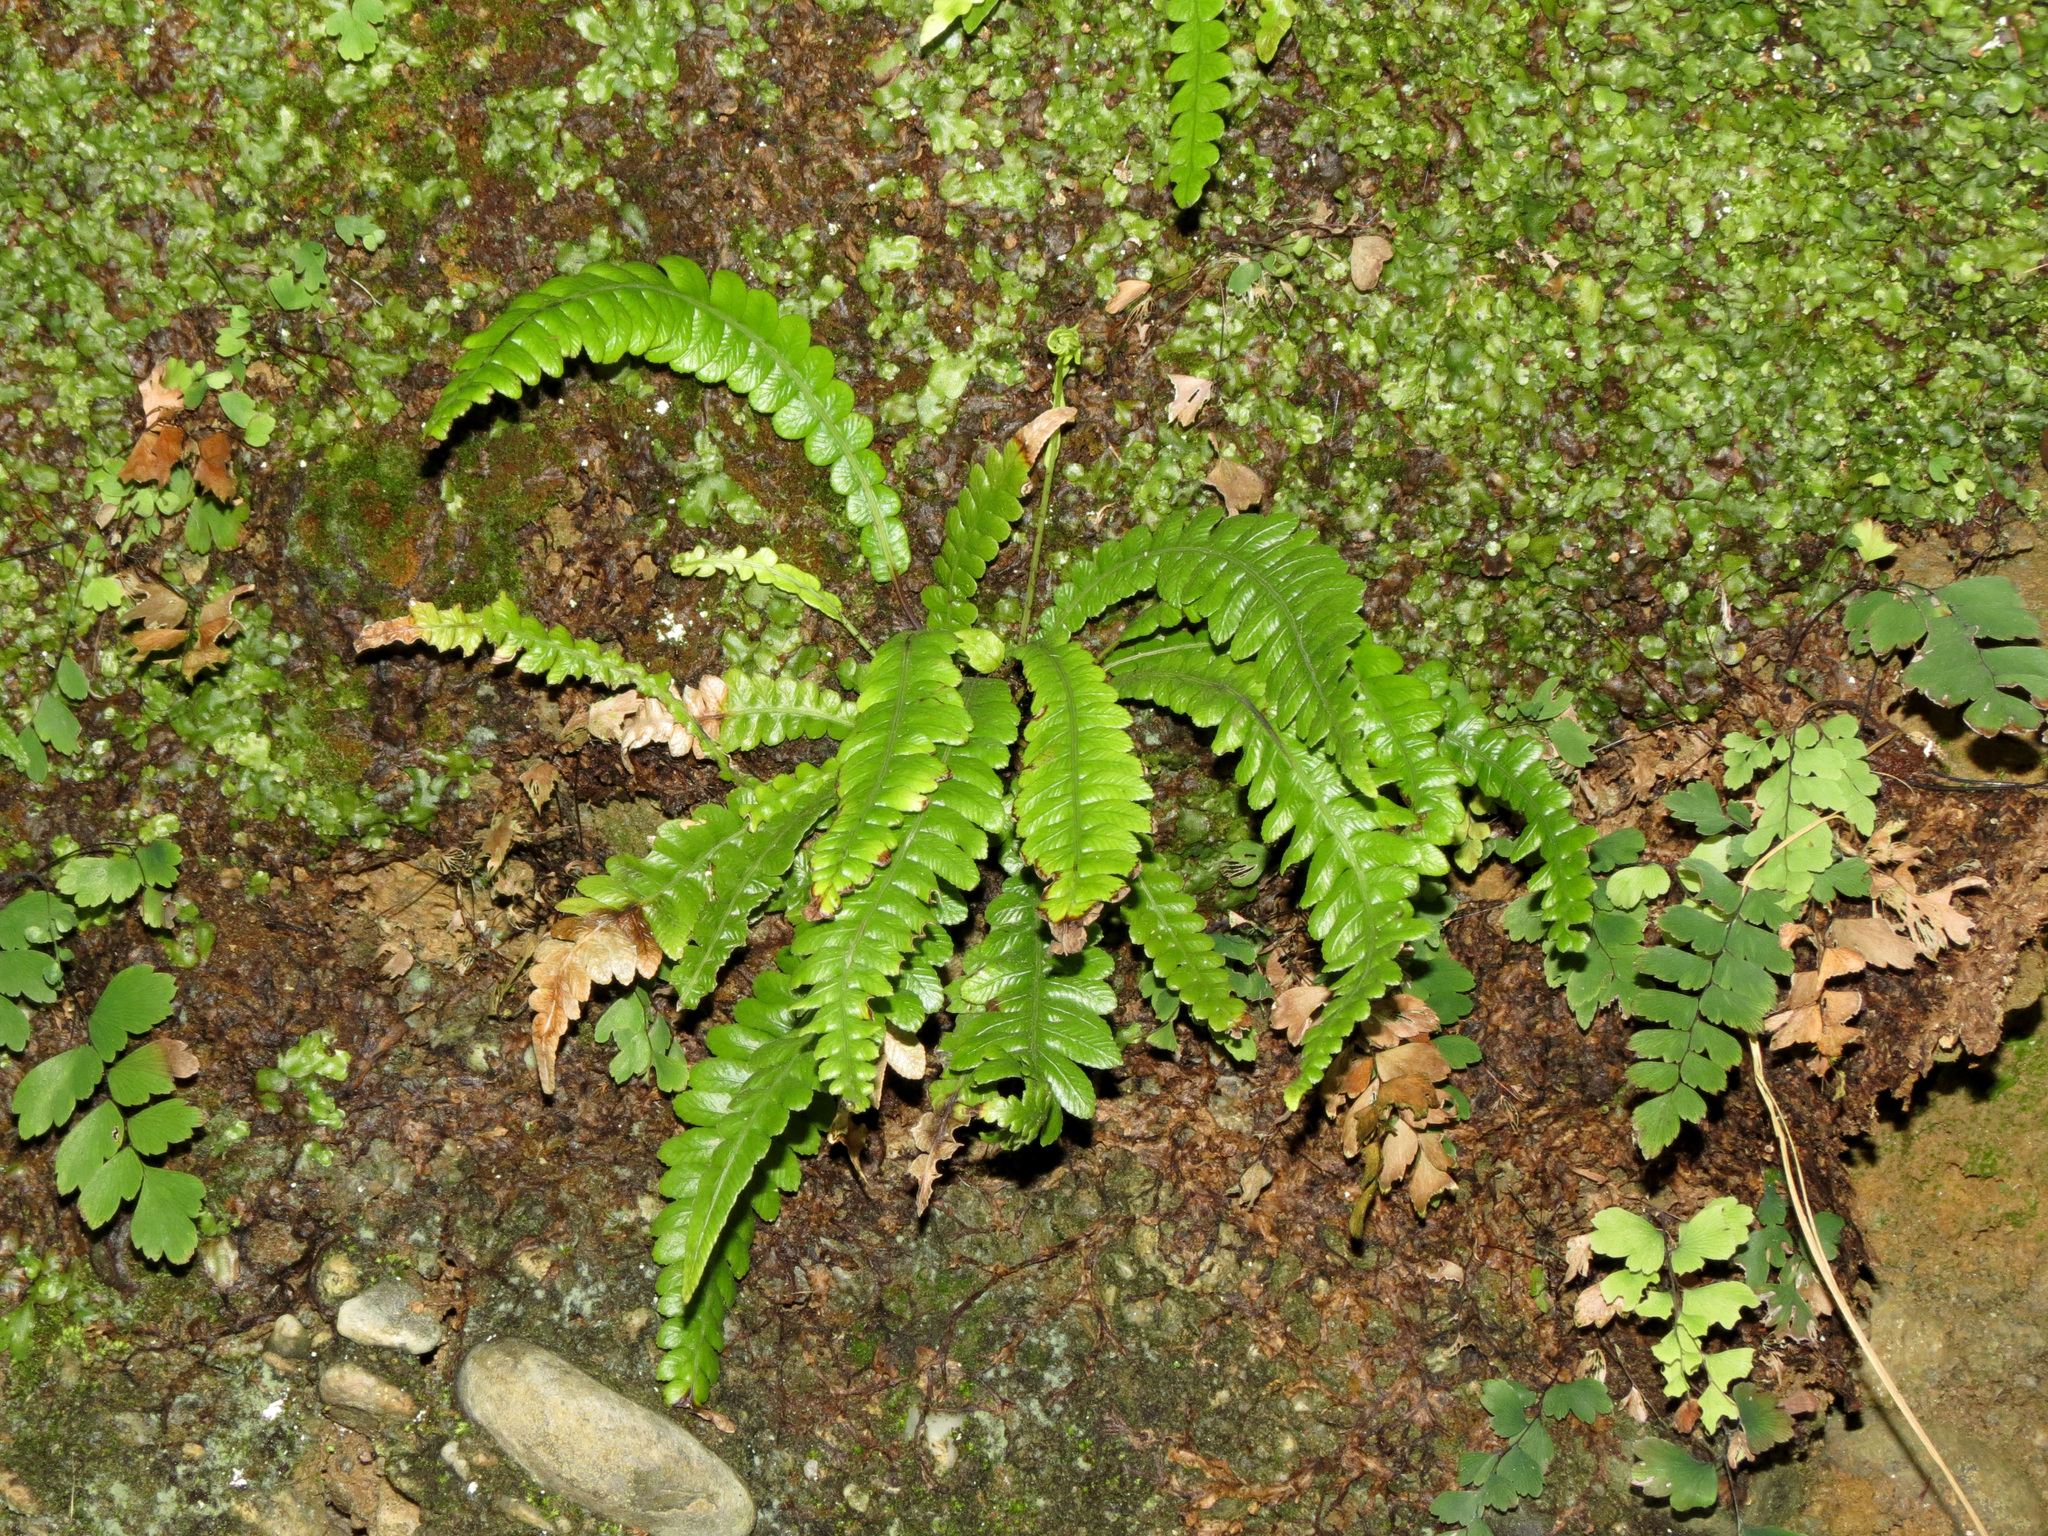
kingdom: Plantae
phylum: Tracheophyta
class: Polypodiopsida
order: Polypodiales
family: Blechnaceae
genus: Austroblechnum
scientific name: Austroblechnum lanceolatum
